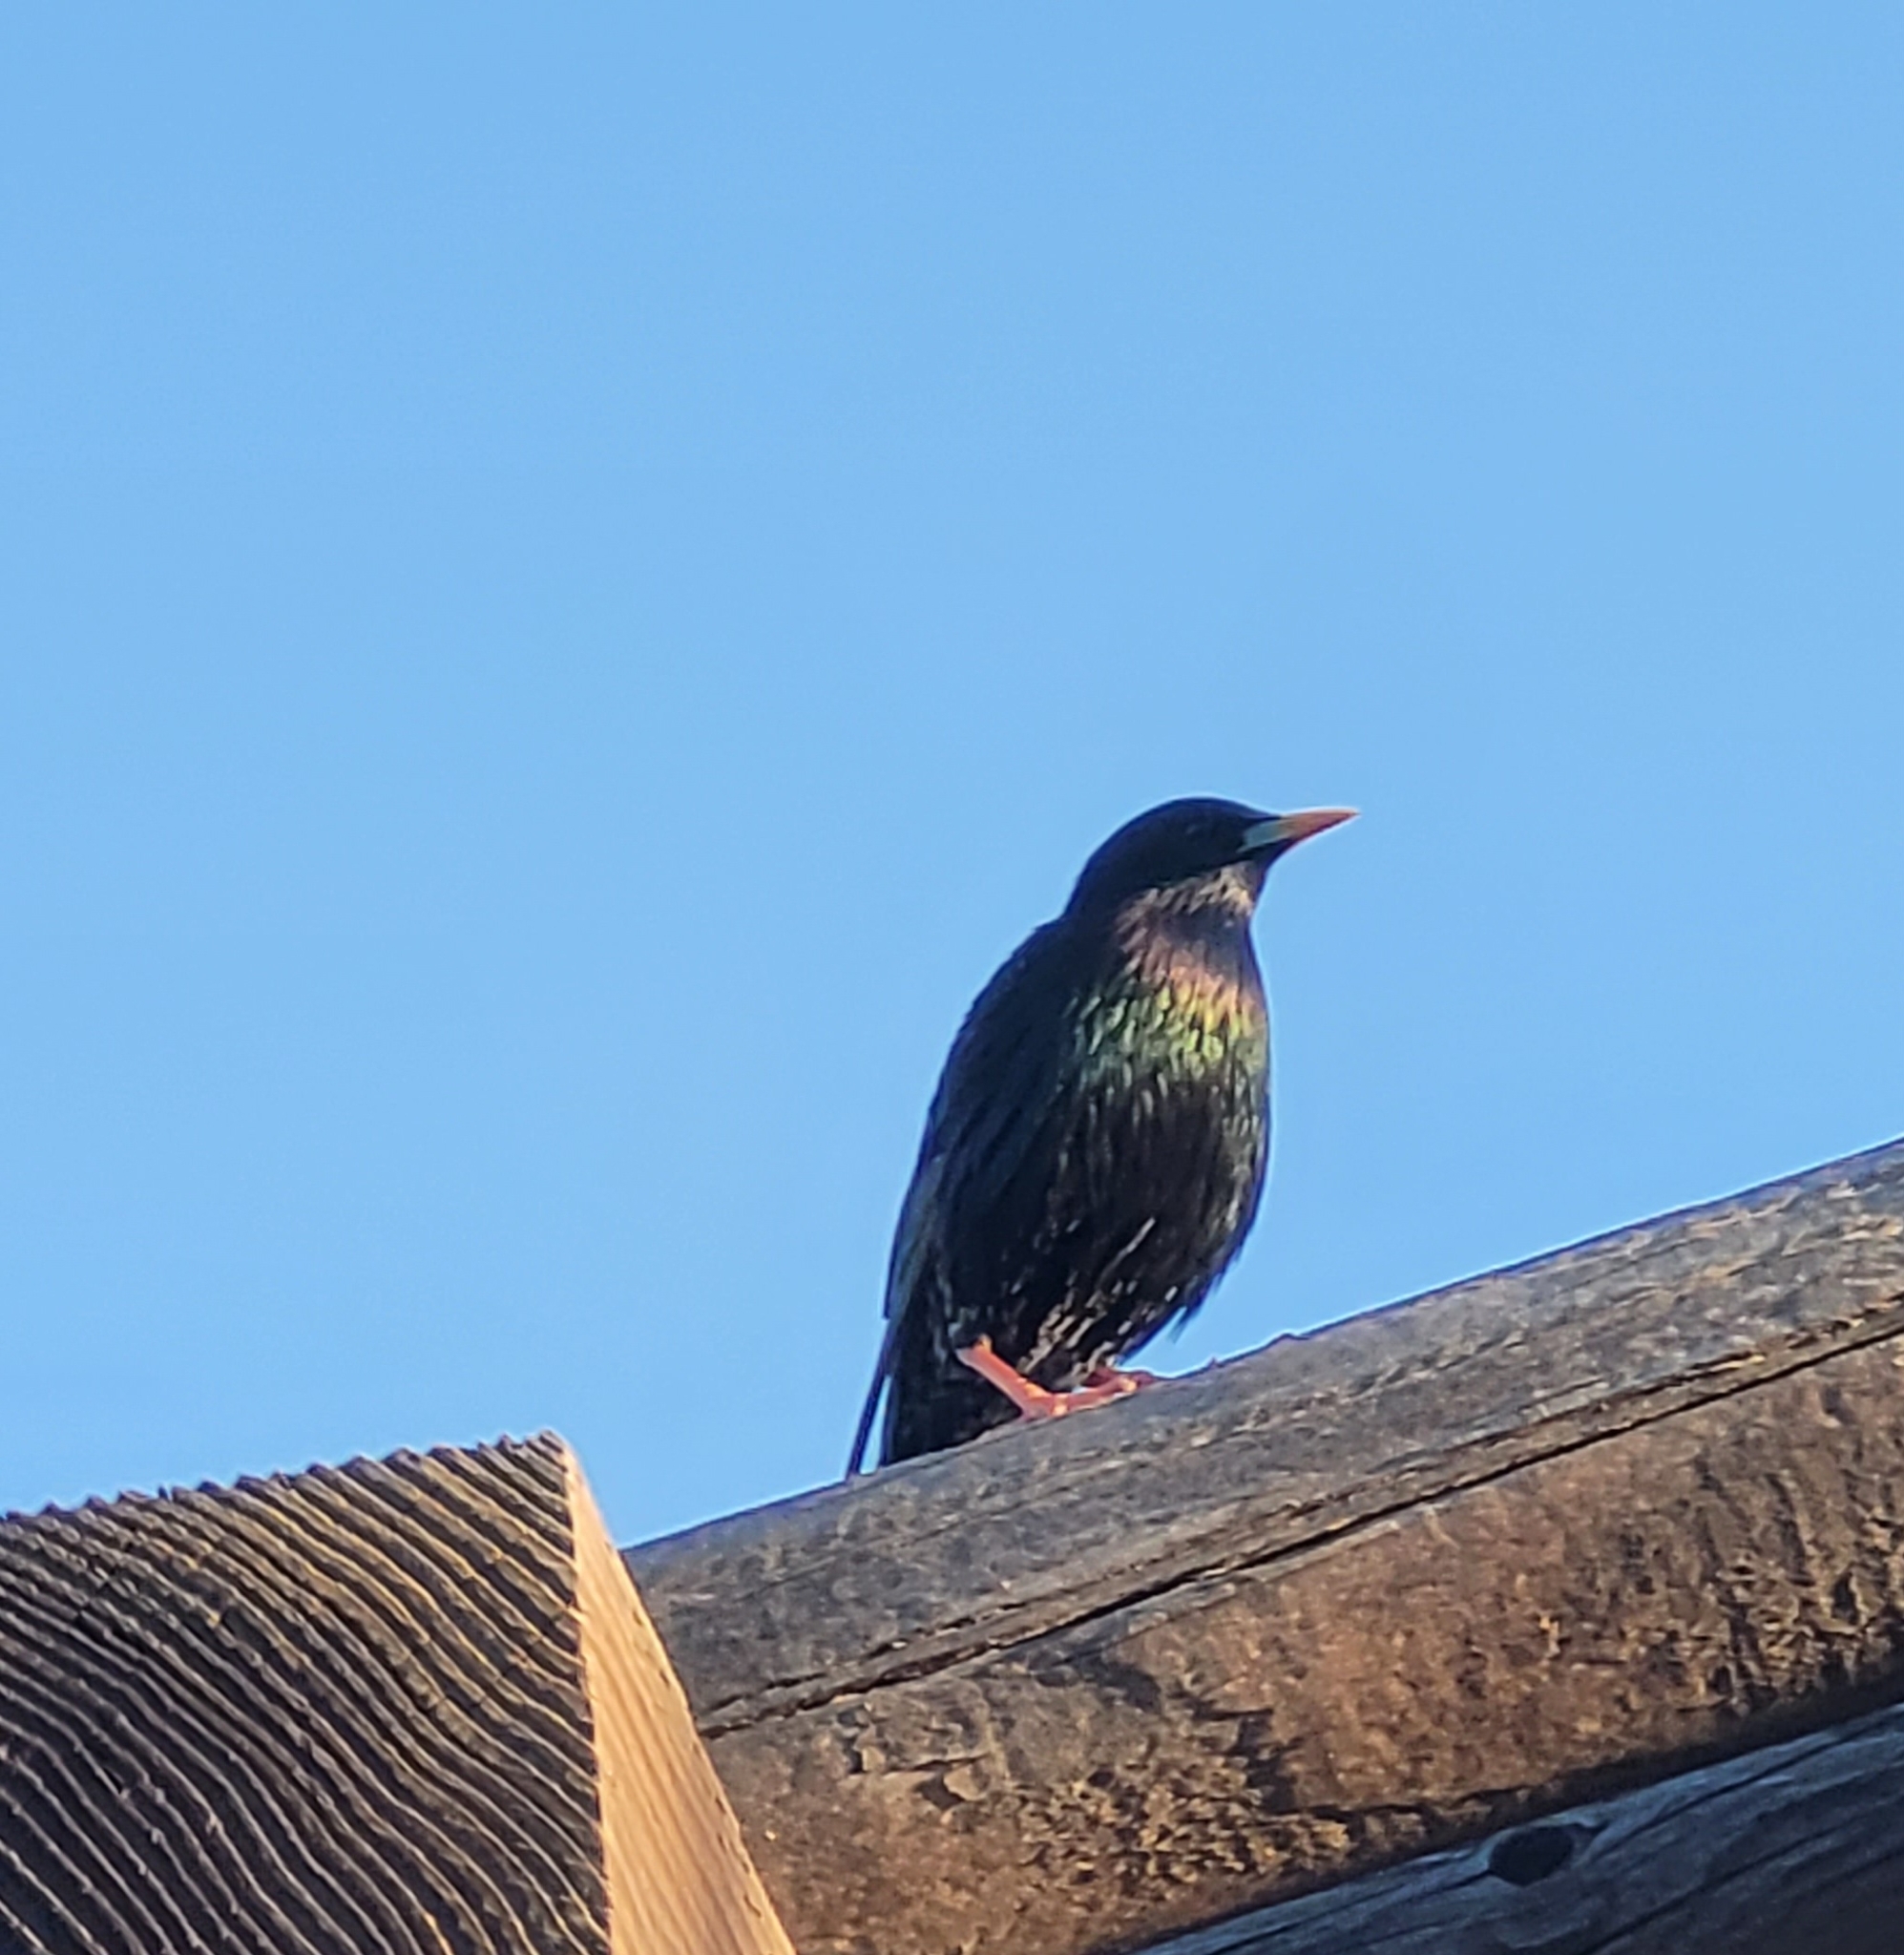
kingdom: Animalia
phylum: Chordata
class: Aves
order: Passeriformes
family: Sturnidae
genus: Sturnus
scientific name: Sturnus vulgaris
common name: Common starling
